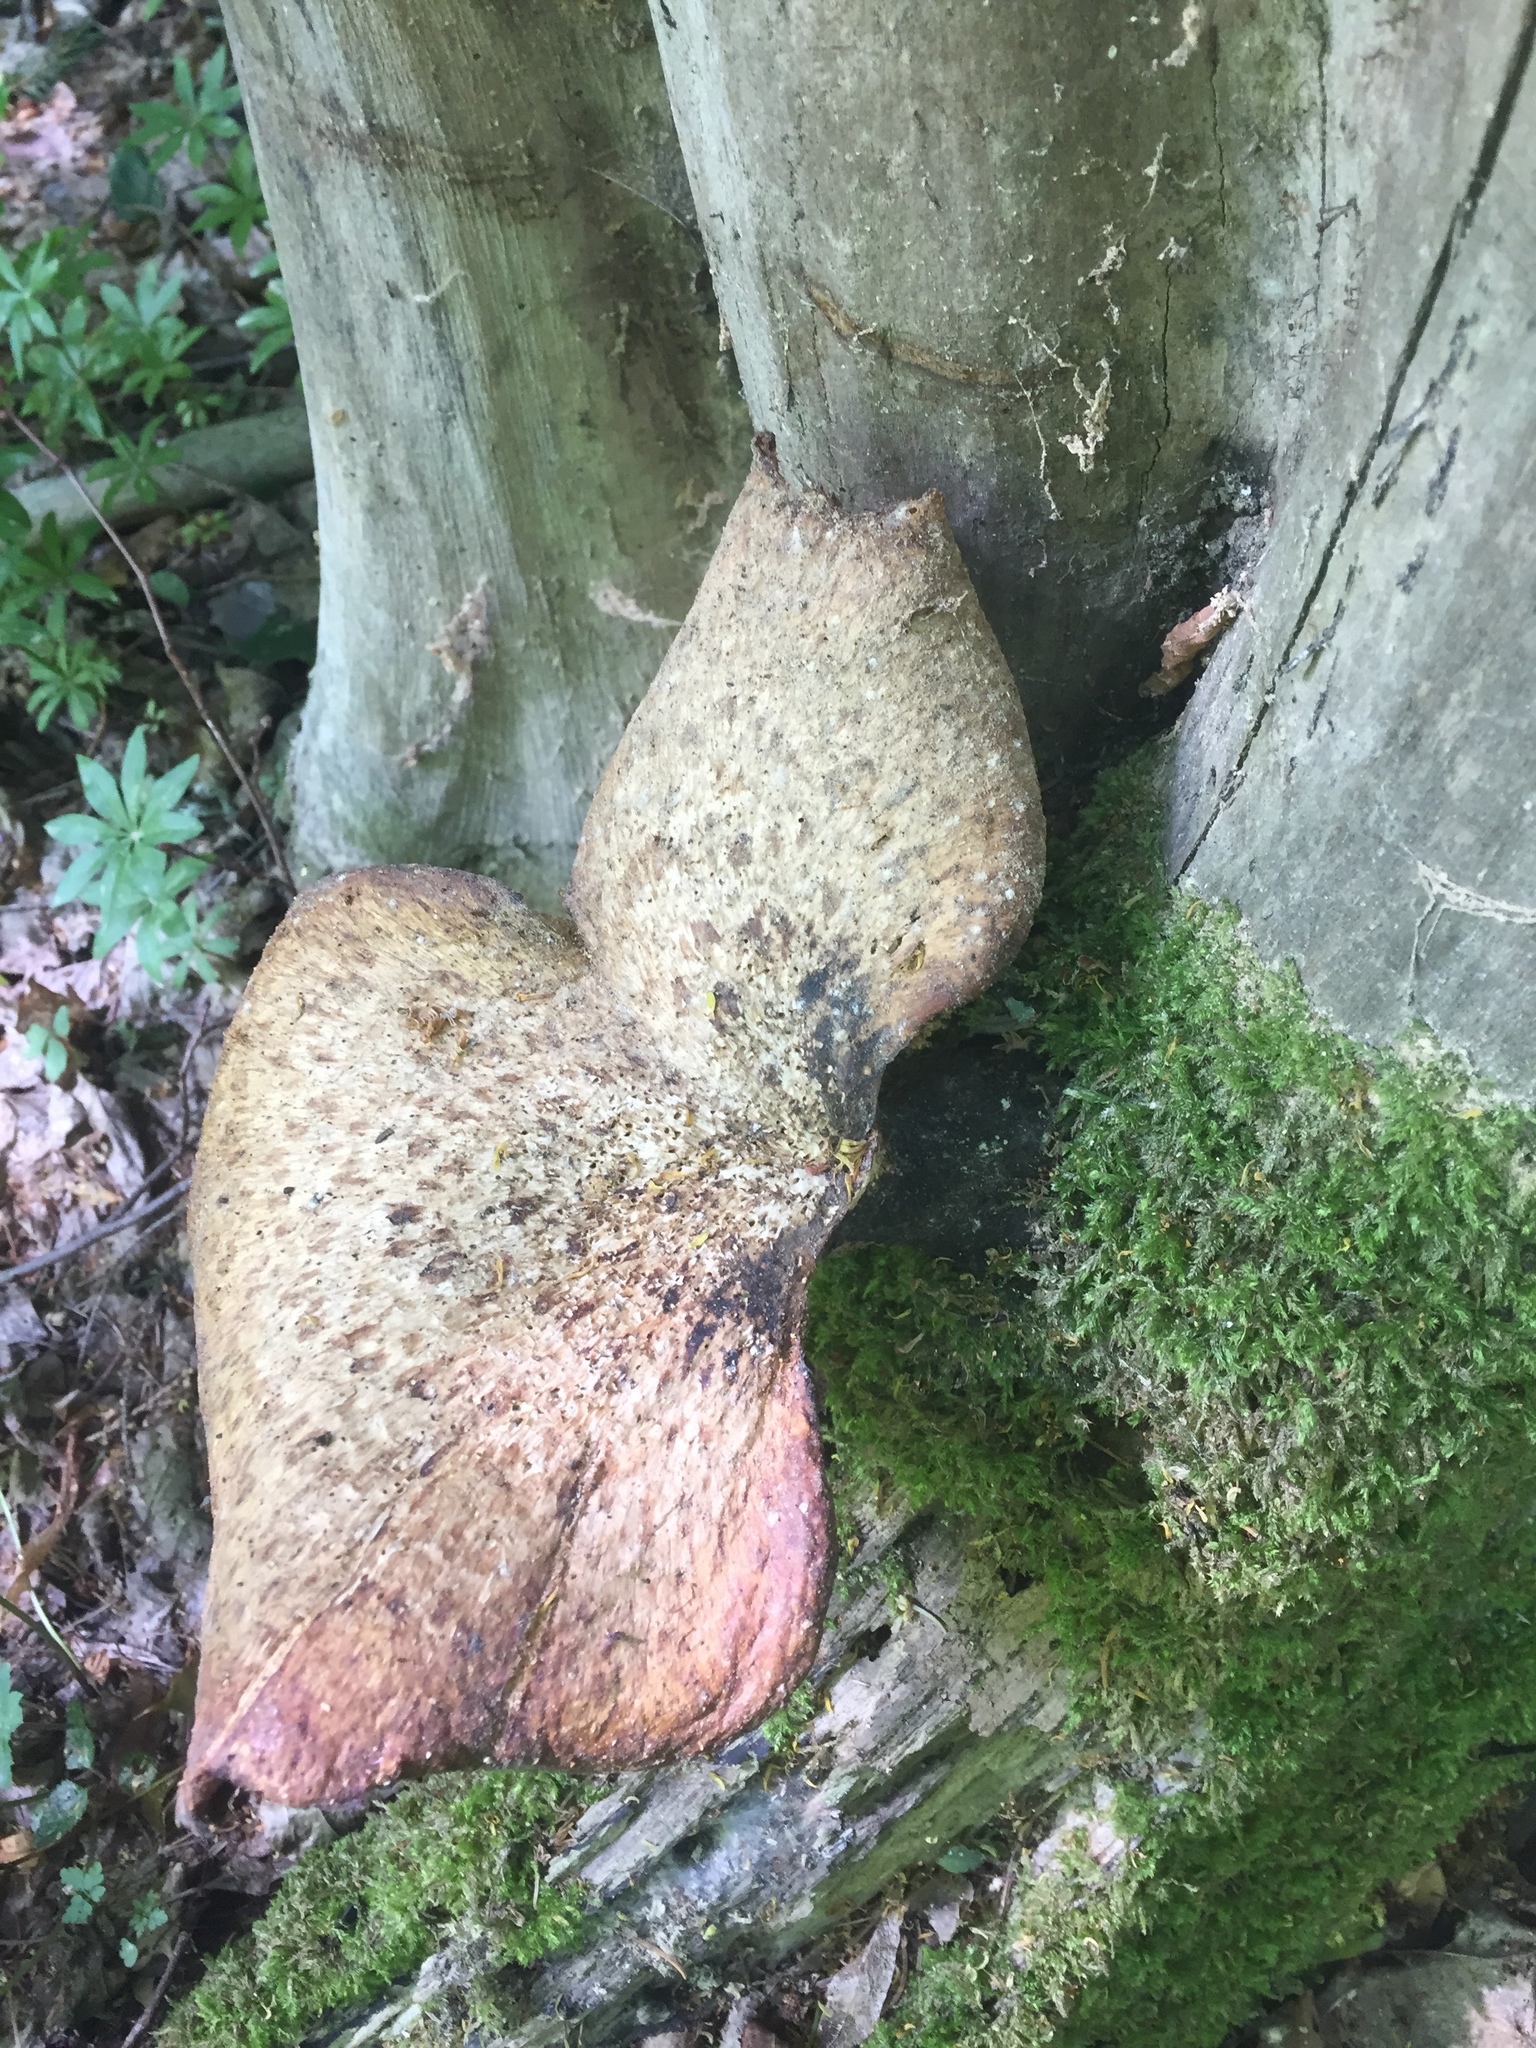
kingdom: Fungi
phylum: Basidiomycota
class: Agaricomycetes
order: Polyporales
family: Polyporaceae
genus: Cerioporus
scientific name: Cerioporus squamosus
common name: Dryad's saddle
